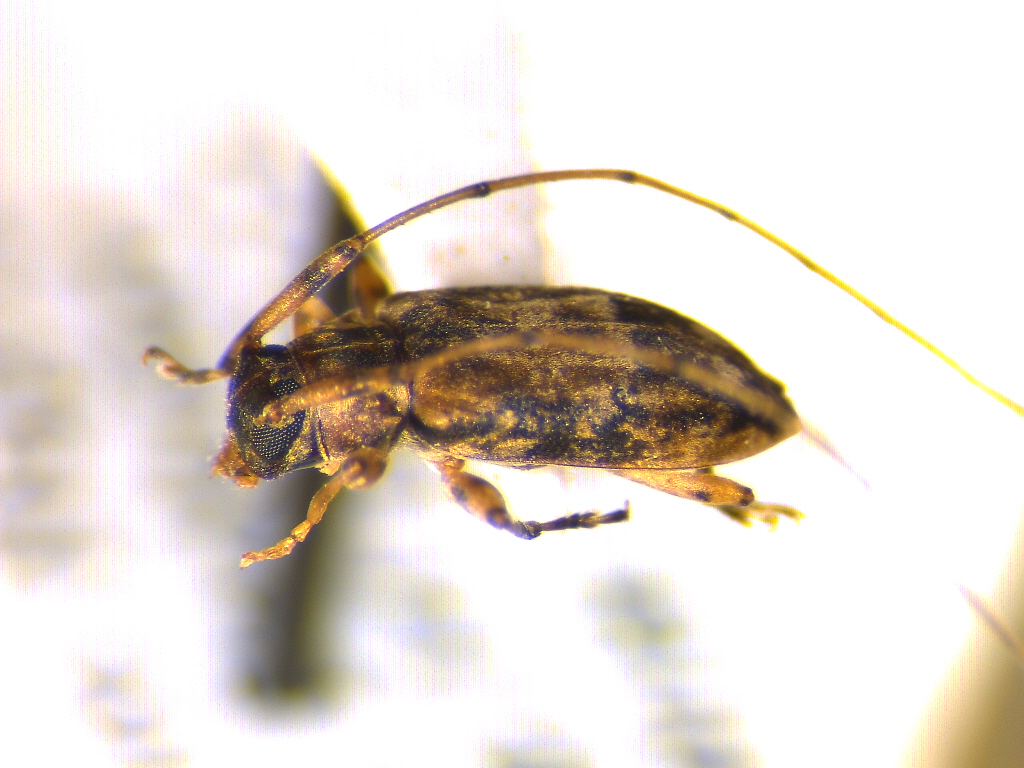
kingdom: Animalia
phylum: Arthropoda
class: Insecta
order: Coleoptera
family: Cerambycidae
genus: Urgleptes
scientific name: Urgleptes sandersoni
